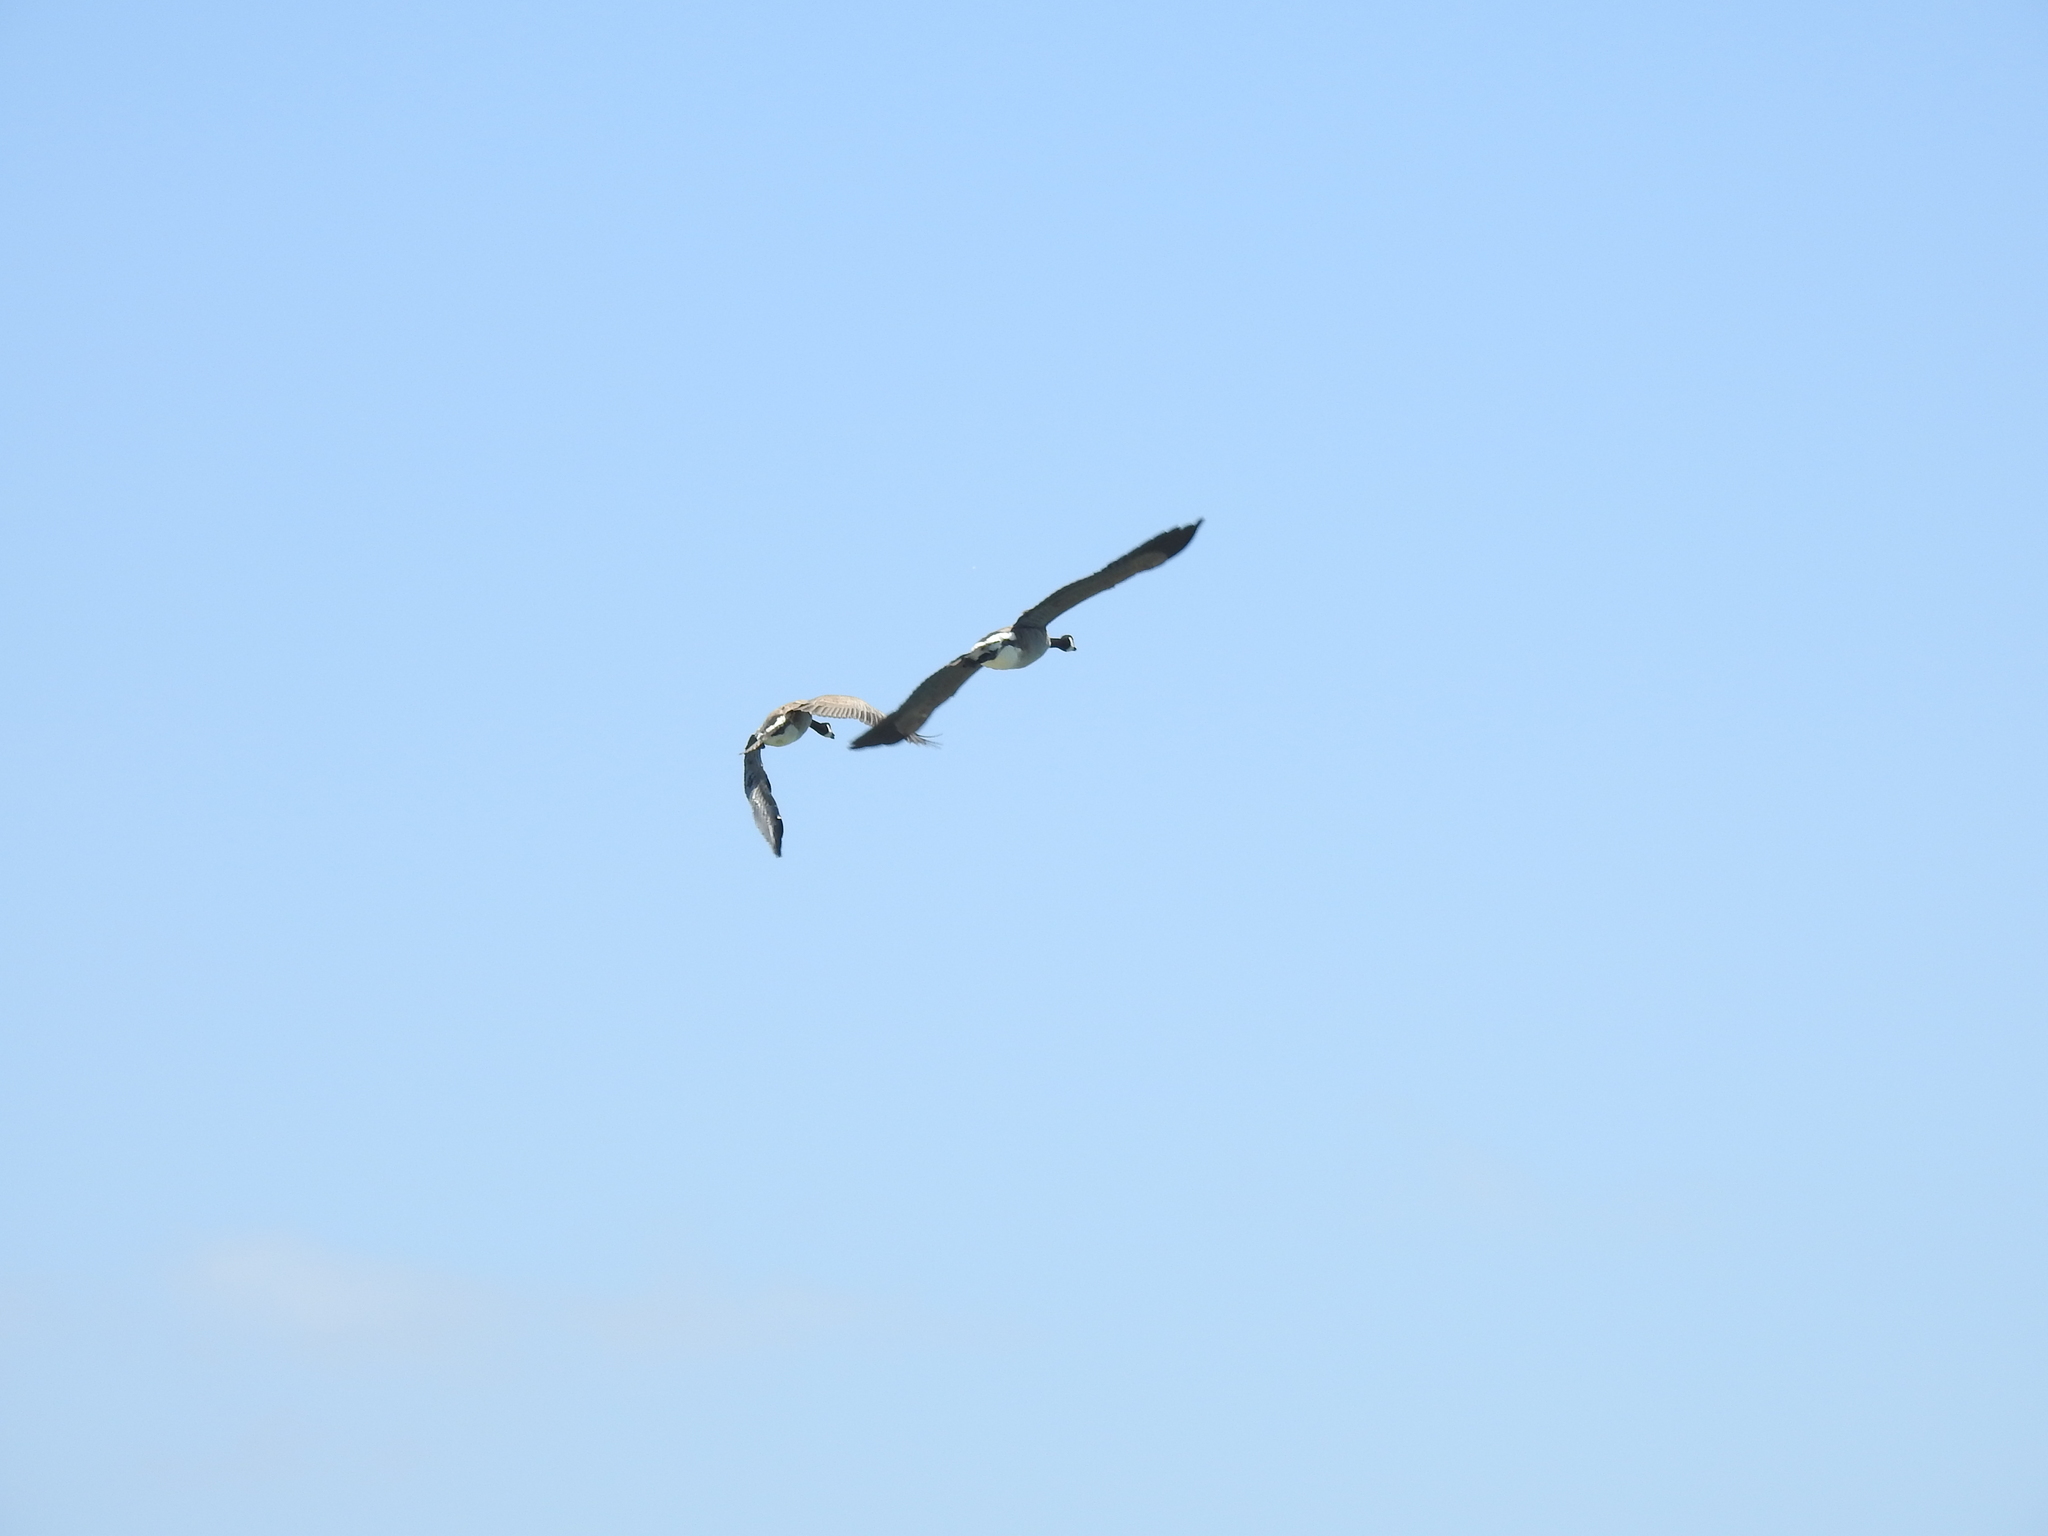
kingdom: Animalia
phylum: Chordata
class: Aves
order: Anseriformes
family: Anatidae
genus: Branta
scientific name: Branta canadensis
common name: Canada goose
